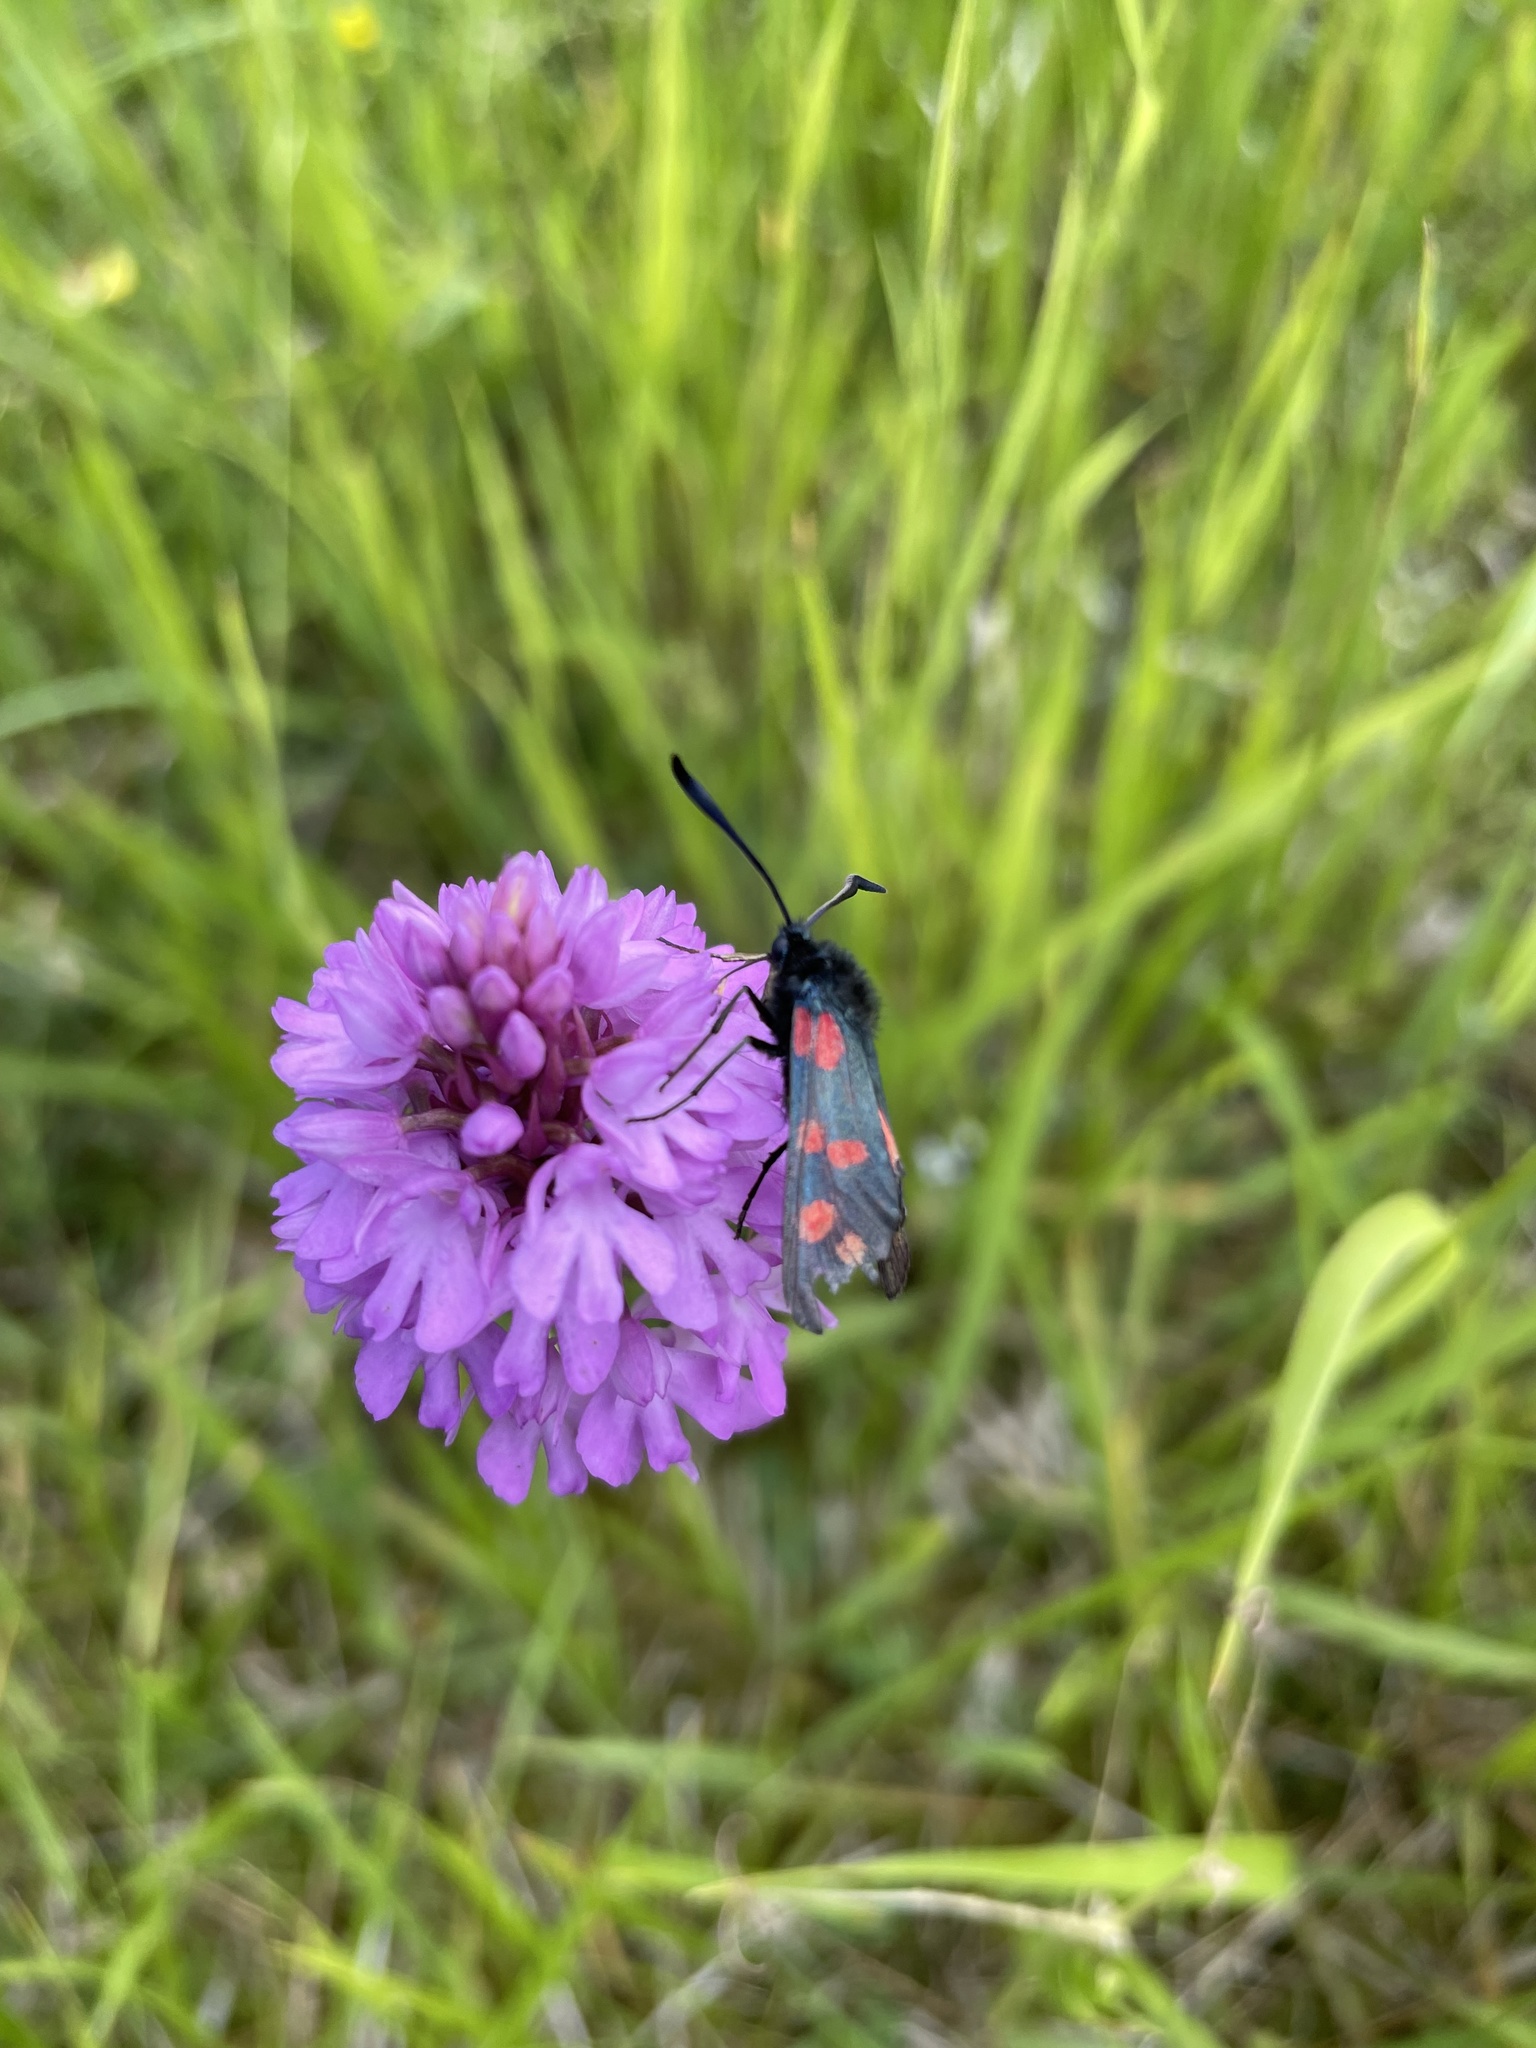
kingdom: Animalia
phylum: Arthropoda
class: Insecta
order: Lepidoptera
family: Zygaenidae
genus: Zygaena
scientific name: Zygaena filipendulae
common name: Six-spot burnet
